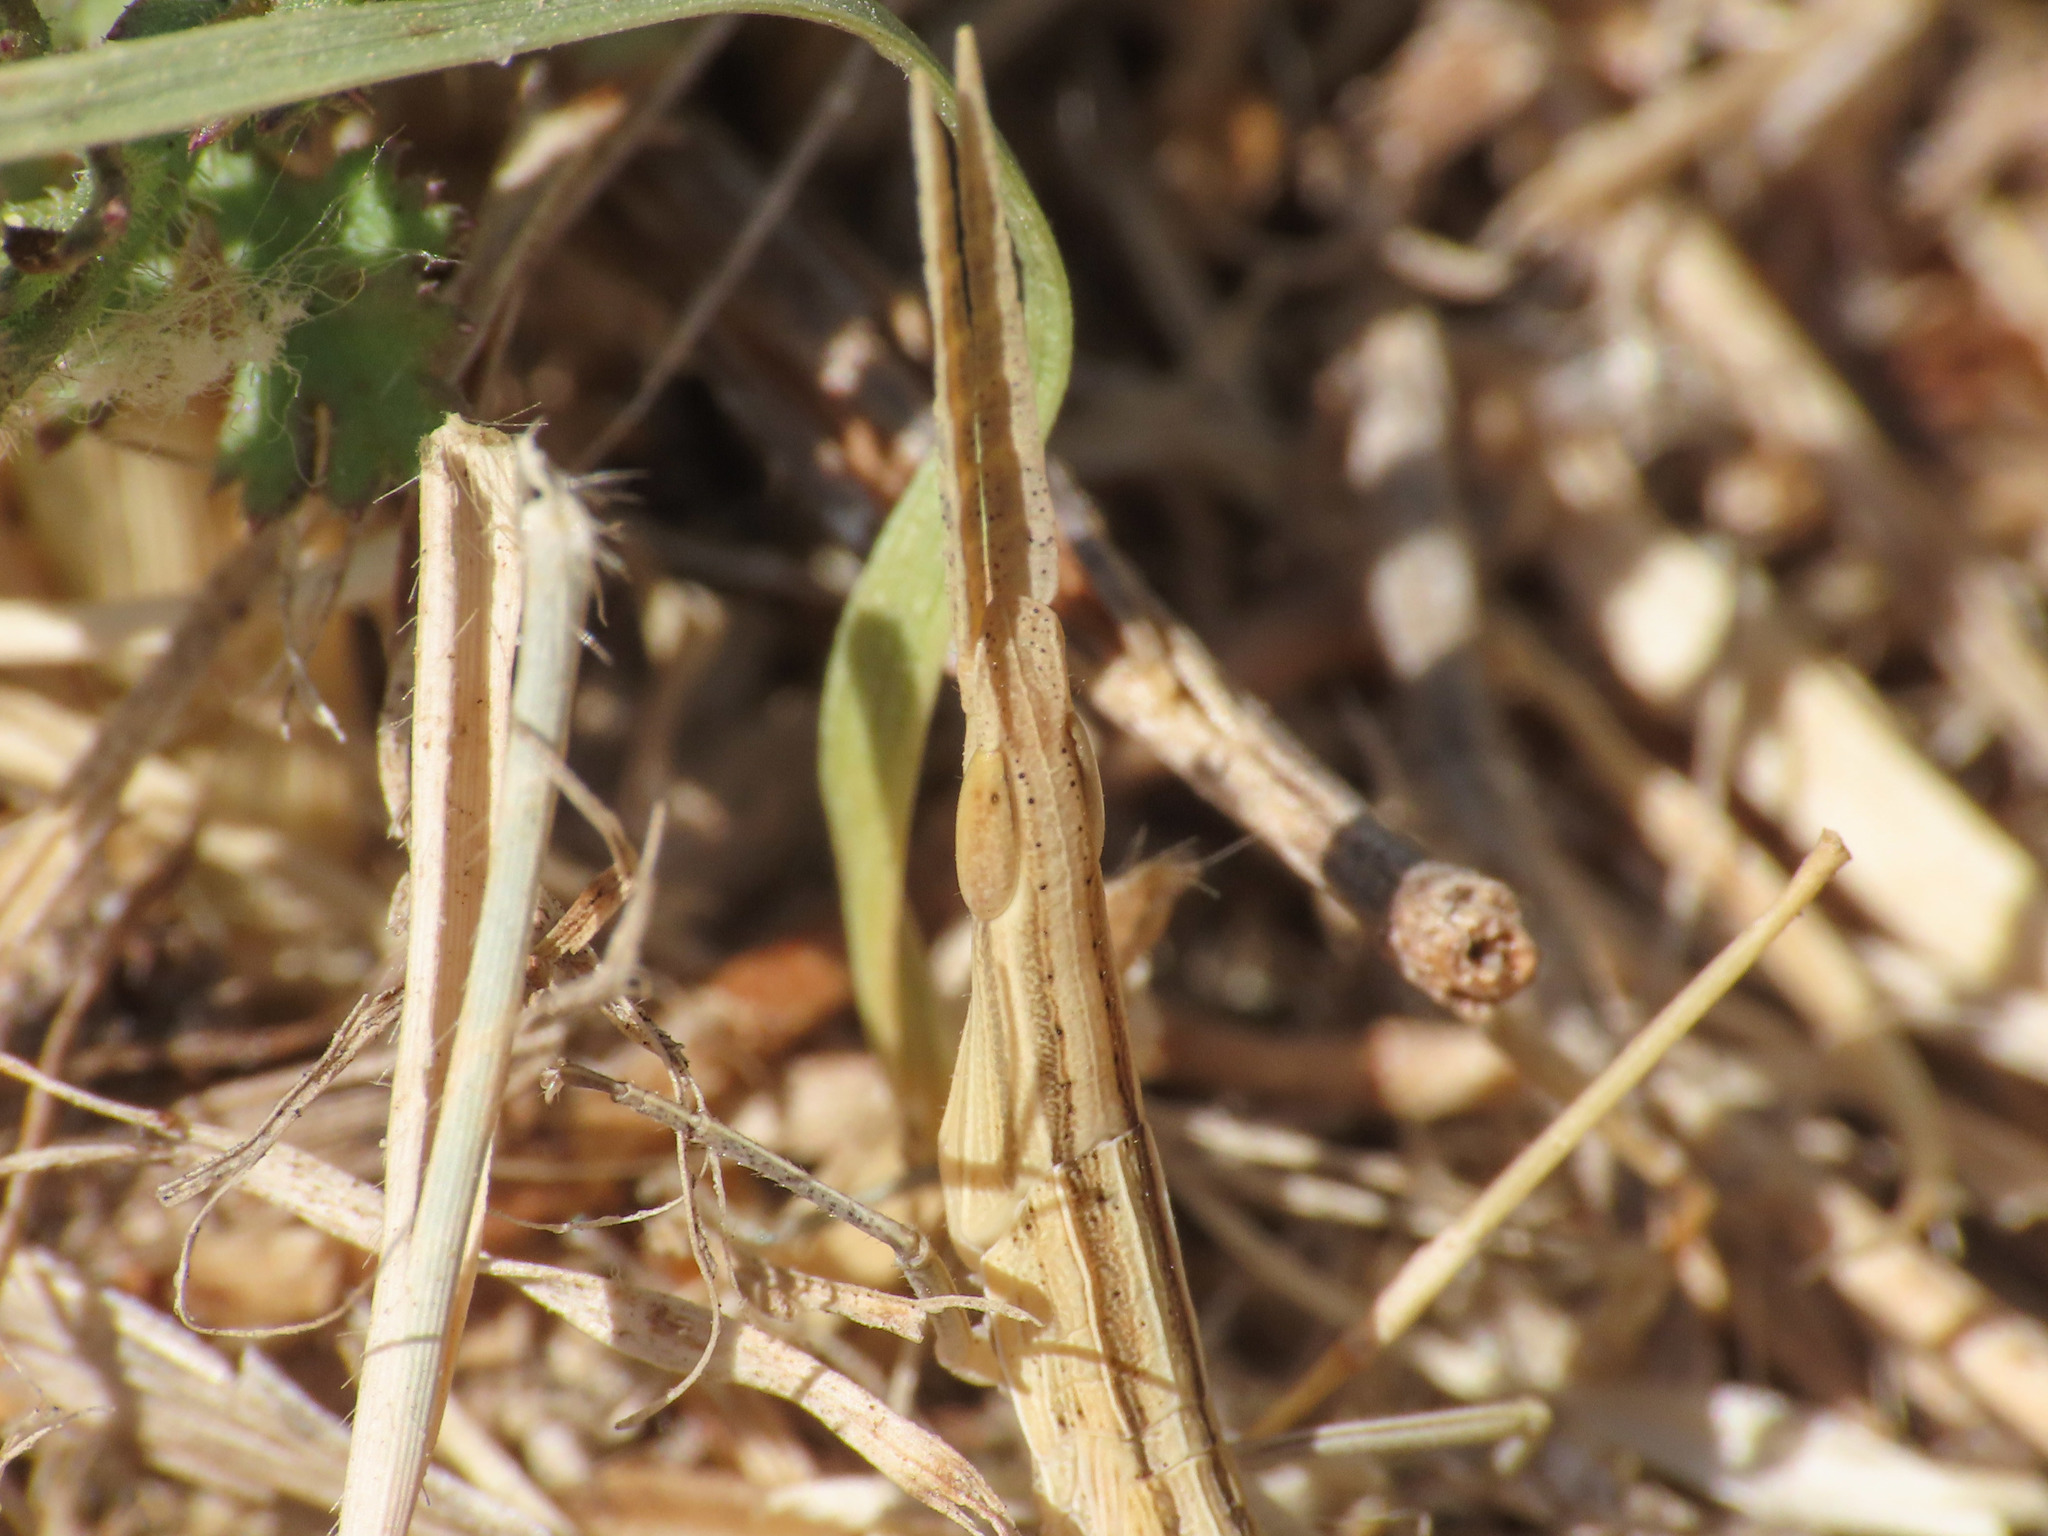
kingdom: Animalia
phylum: Arthropoda
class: Insecta
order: Orthoptera
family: Acrididae
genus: Acrida
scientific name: Acrida ungarica
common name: Common cone-headed grasshopper
